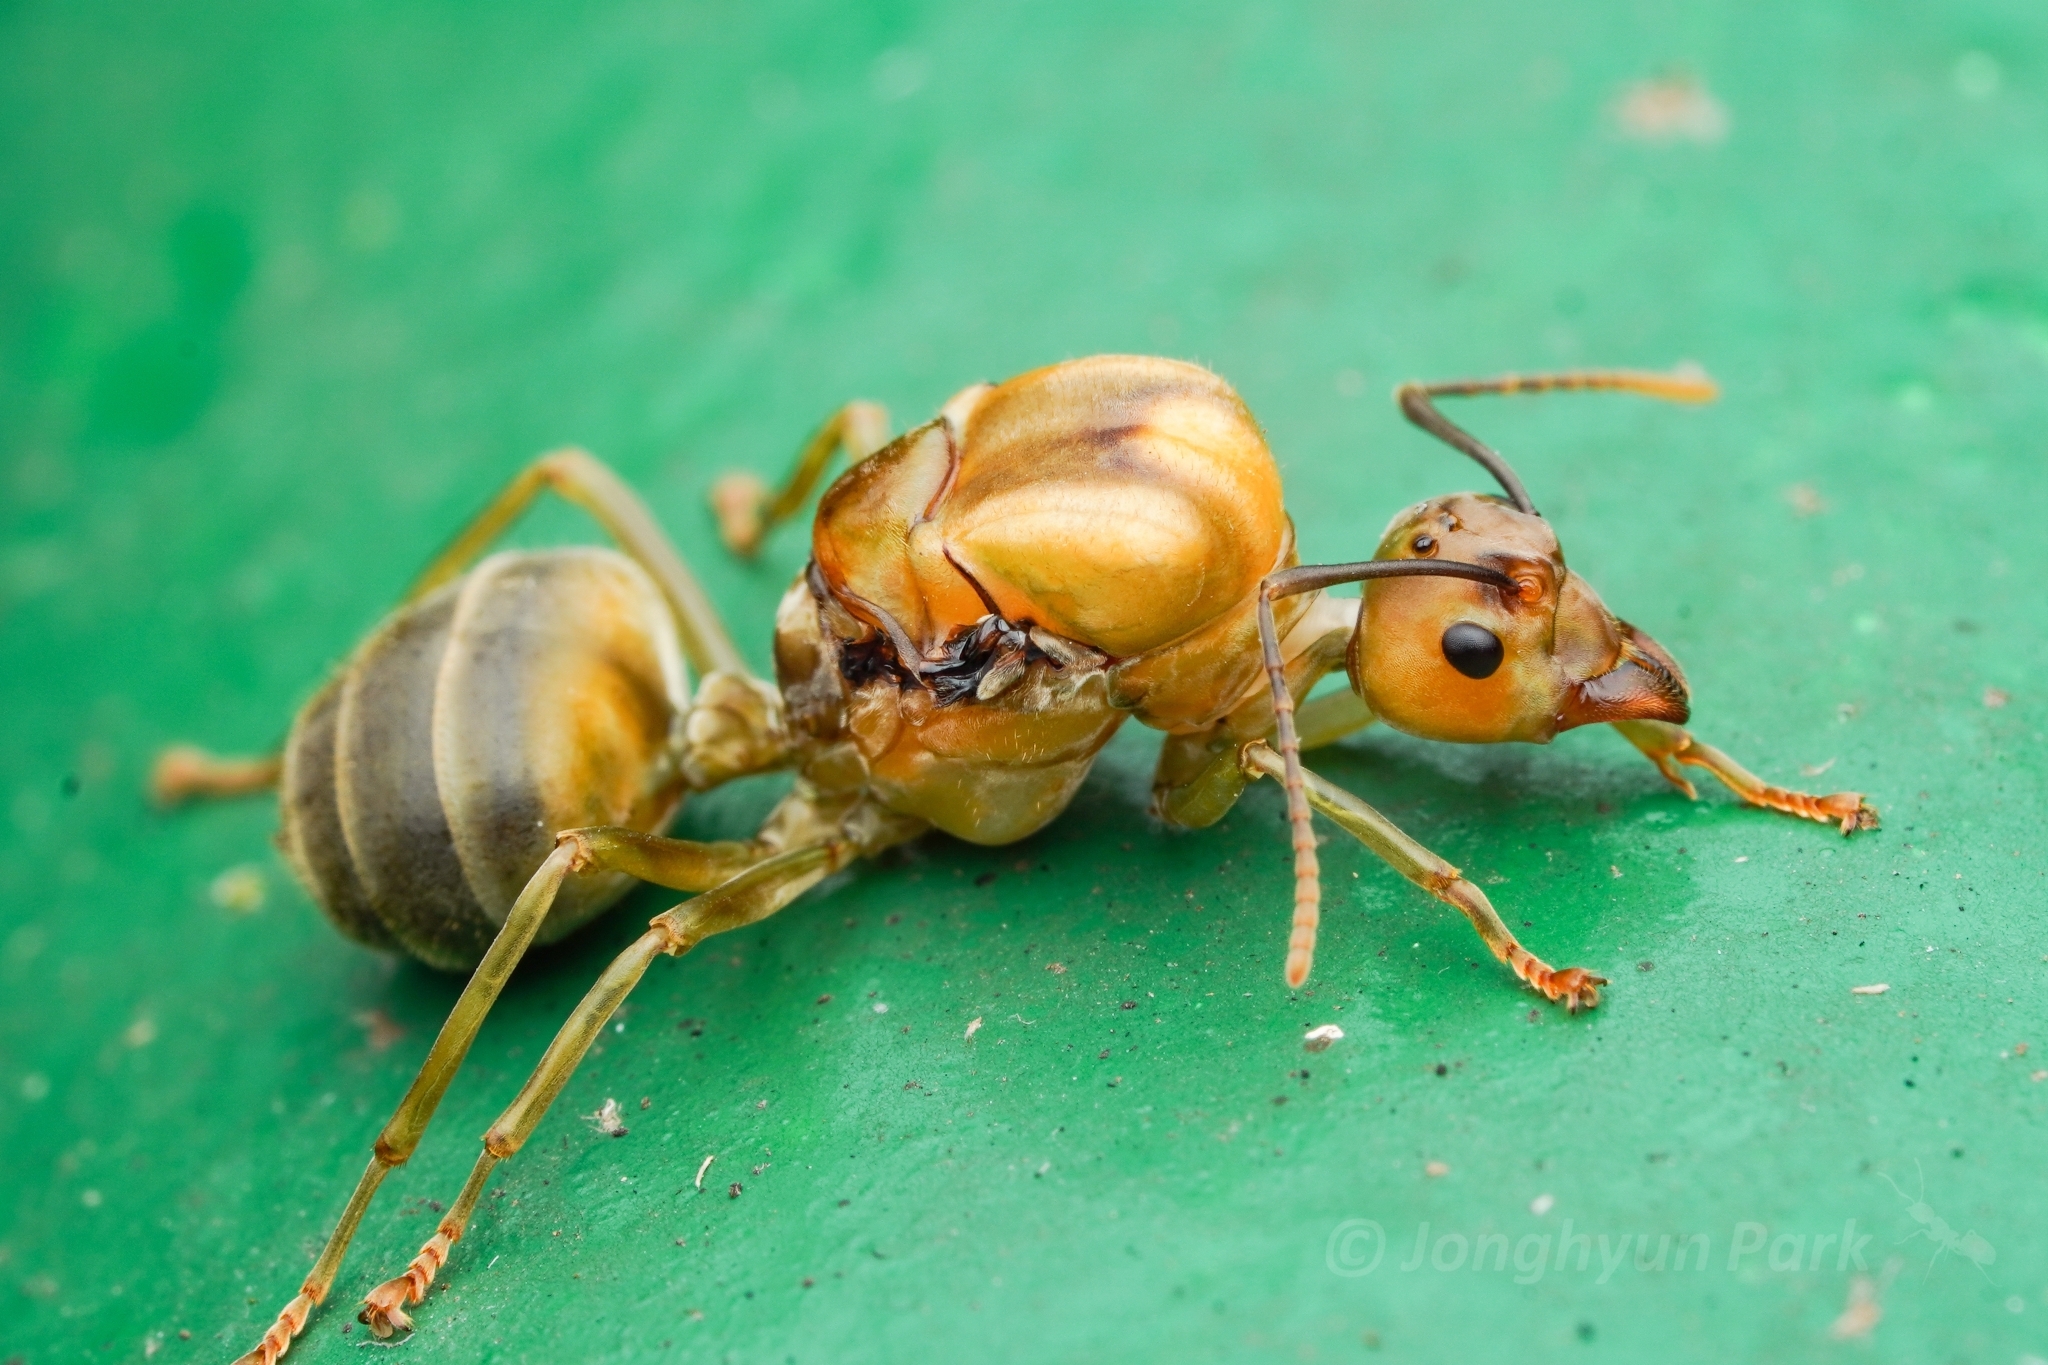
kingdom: Animalia
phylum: Arthropoda
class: Insecta
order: Hymenoptera
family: Formicidae
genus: Oecophylla
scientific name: Oecophylla smaragdina
